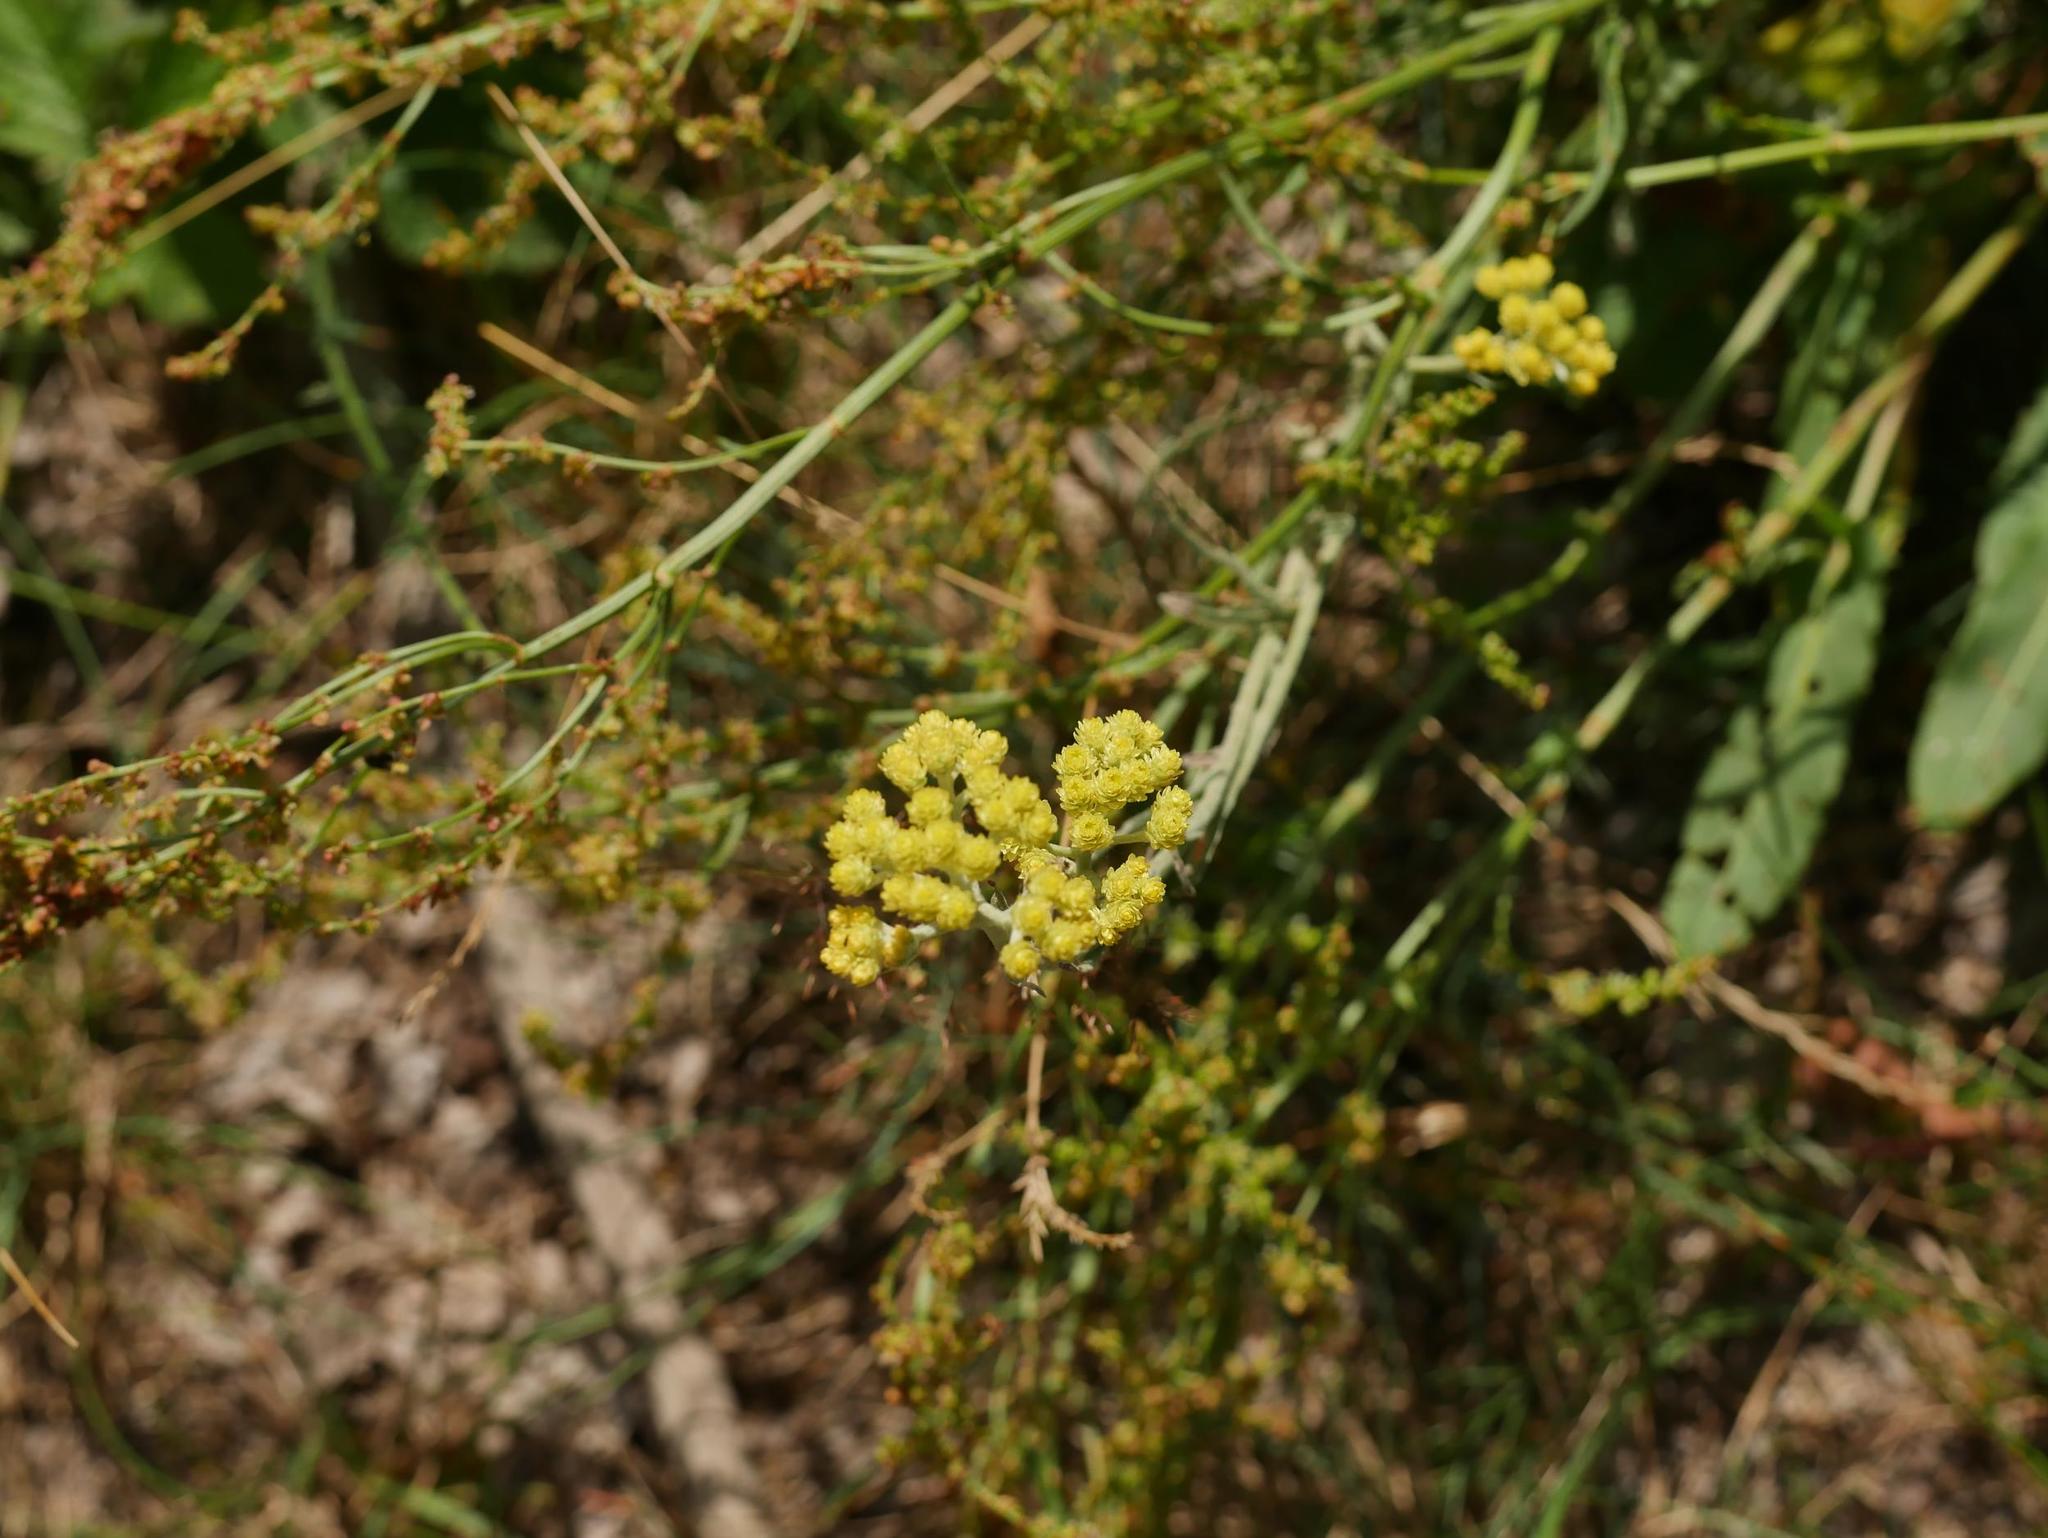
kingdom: Plantae
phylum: Tracheophyta
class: Magnoliopsida
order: Asterales
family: Asteraceae
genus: Helichrysum
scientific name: Helichrysum arenarium
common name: Strawflower
